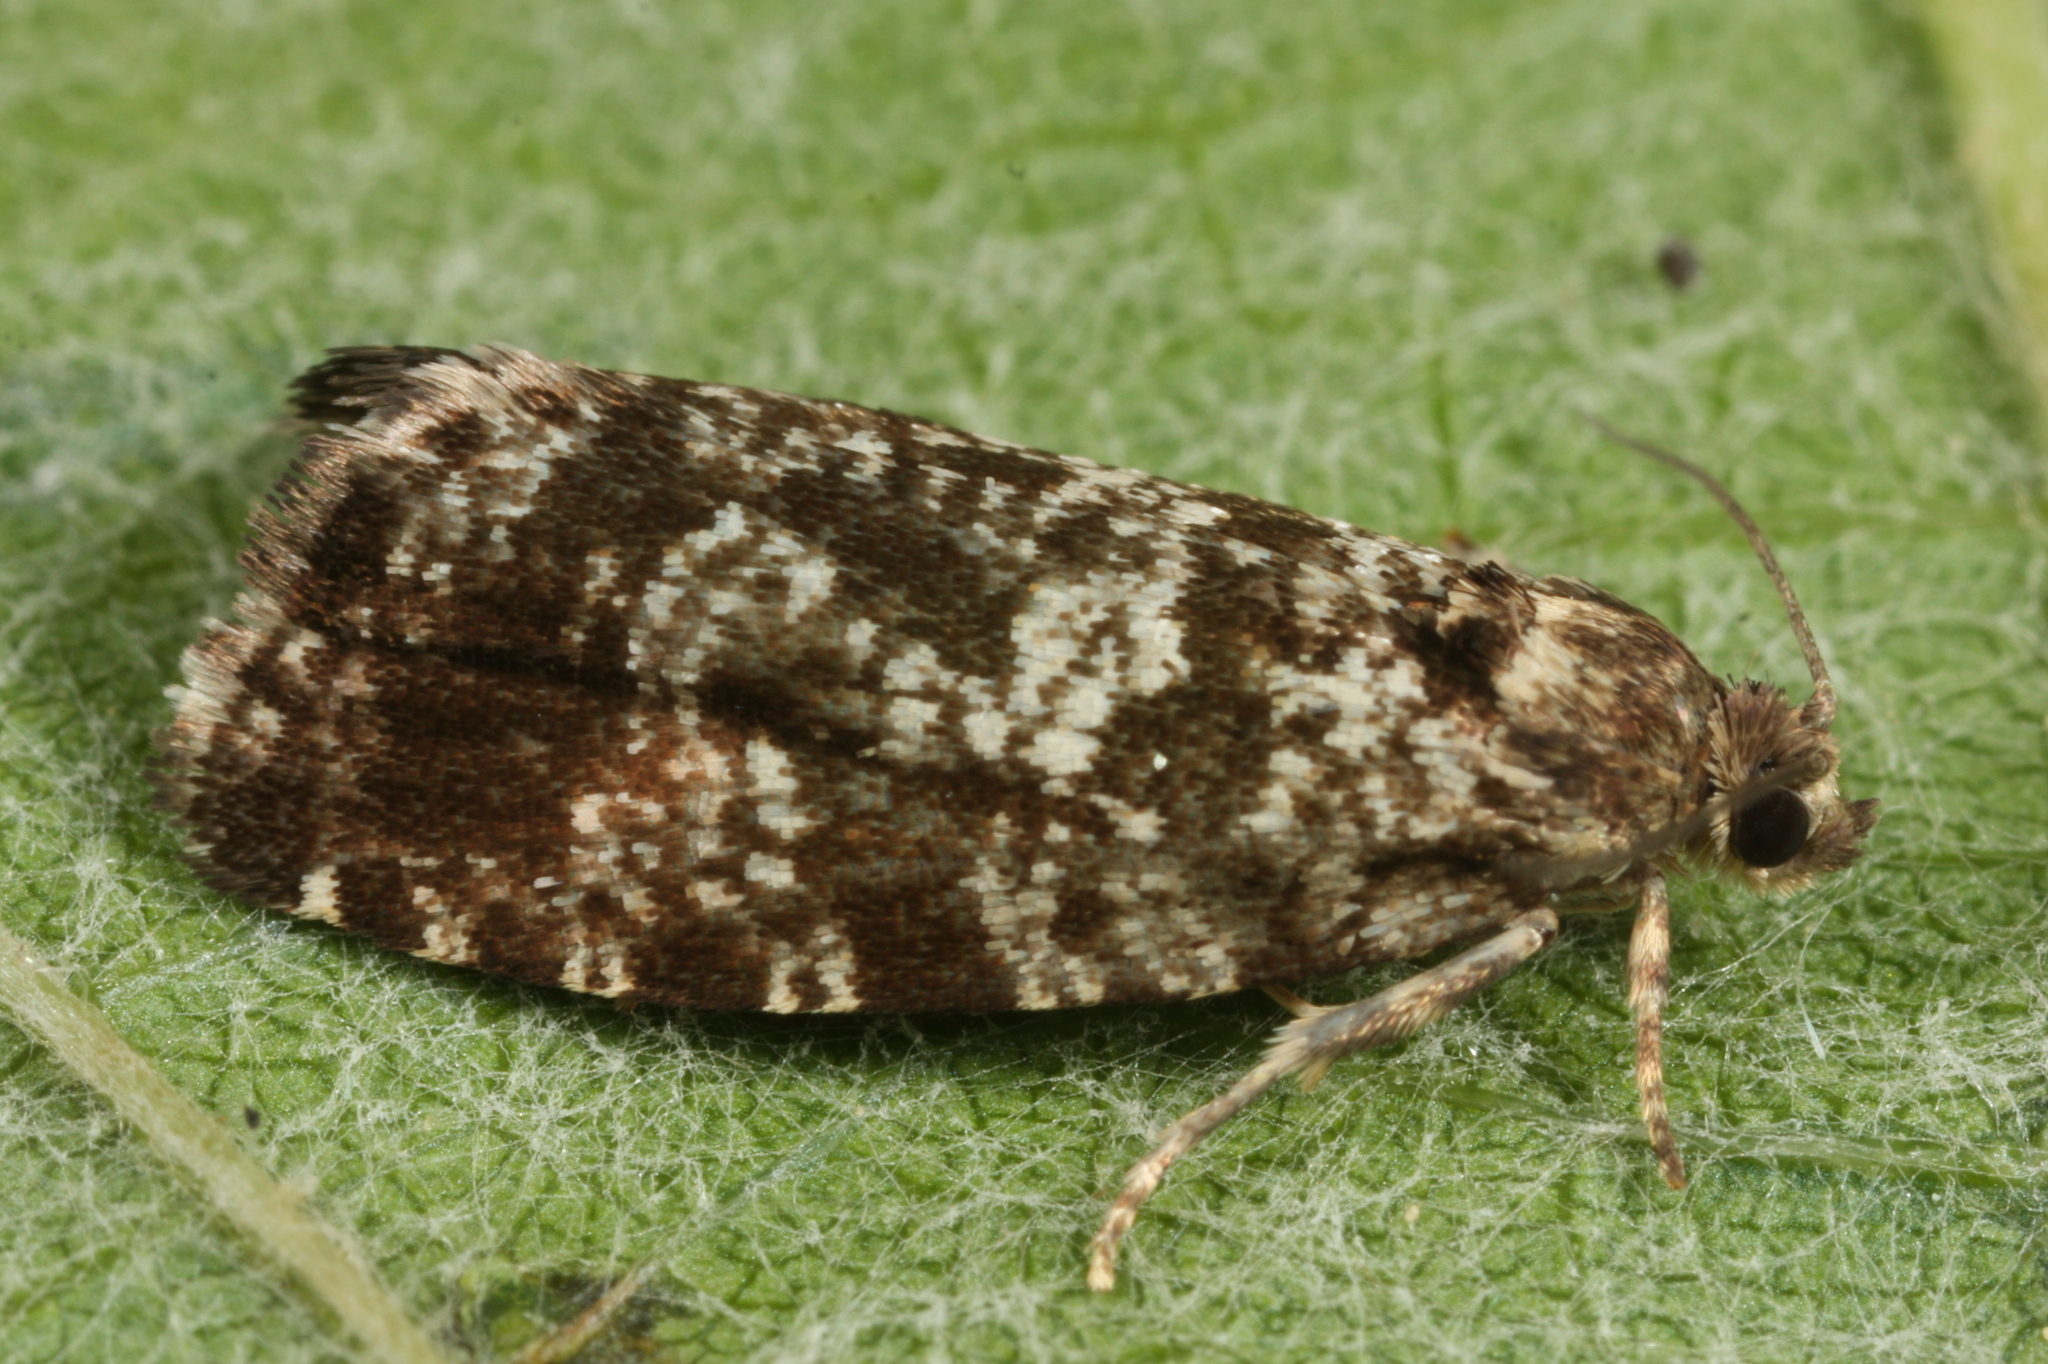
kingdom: Animalia
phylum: Arthropoda
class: Insecta
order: Lepidoptera
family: Tortricidae
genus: Pseudohermenias
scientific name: Pseudohermenias hercyniana
